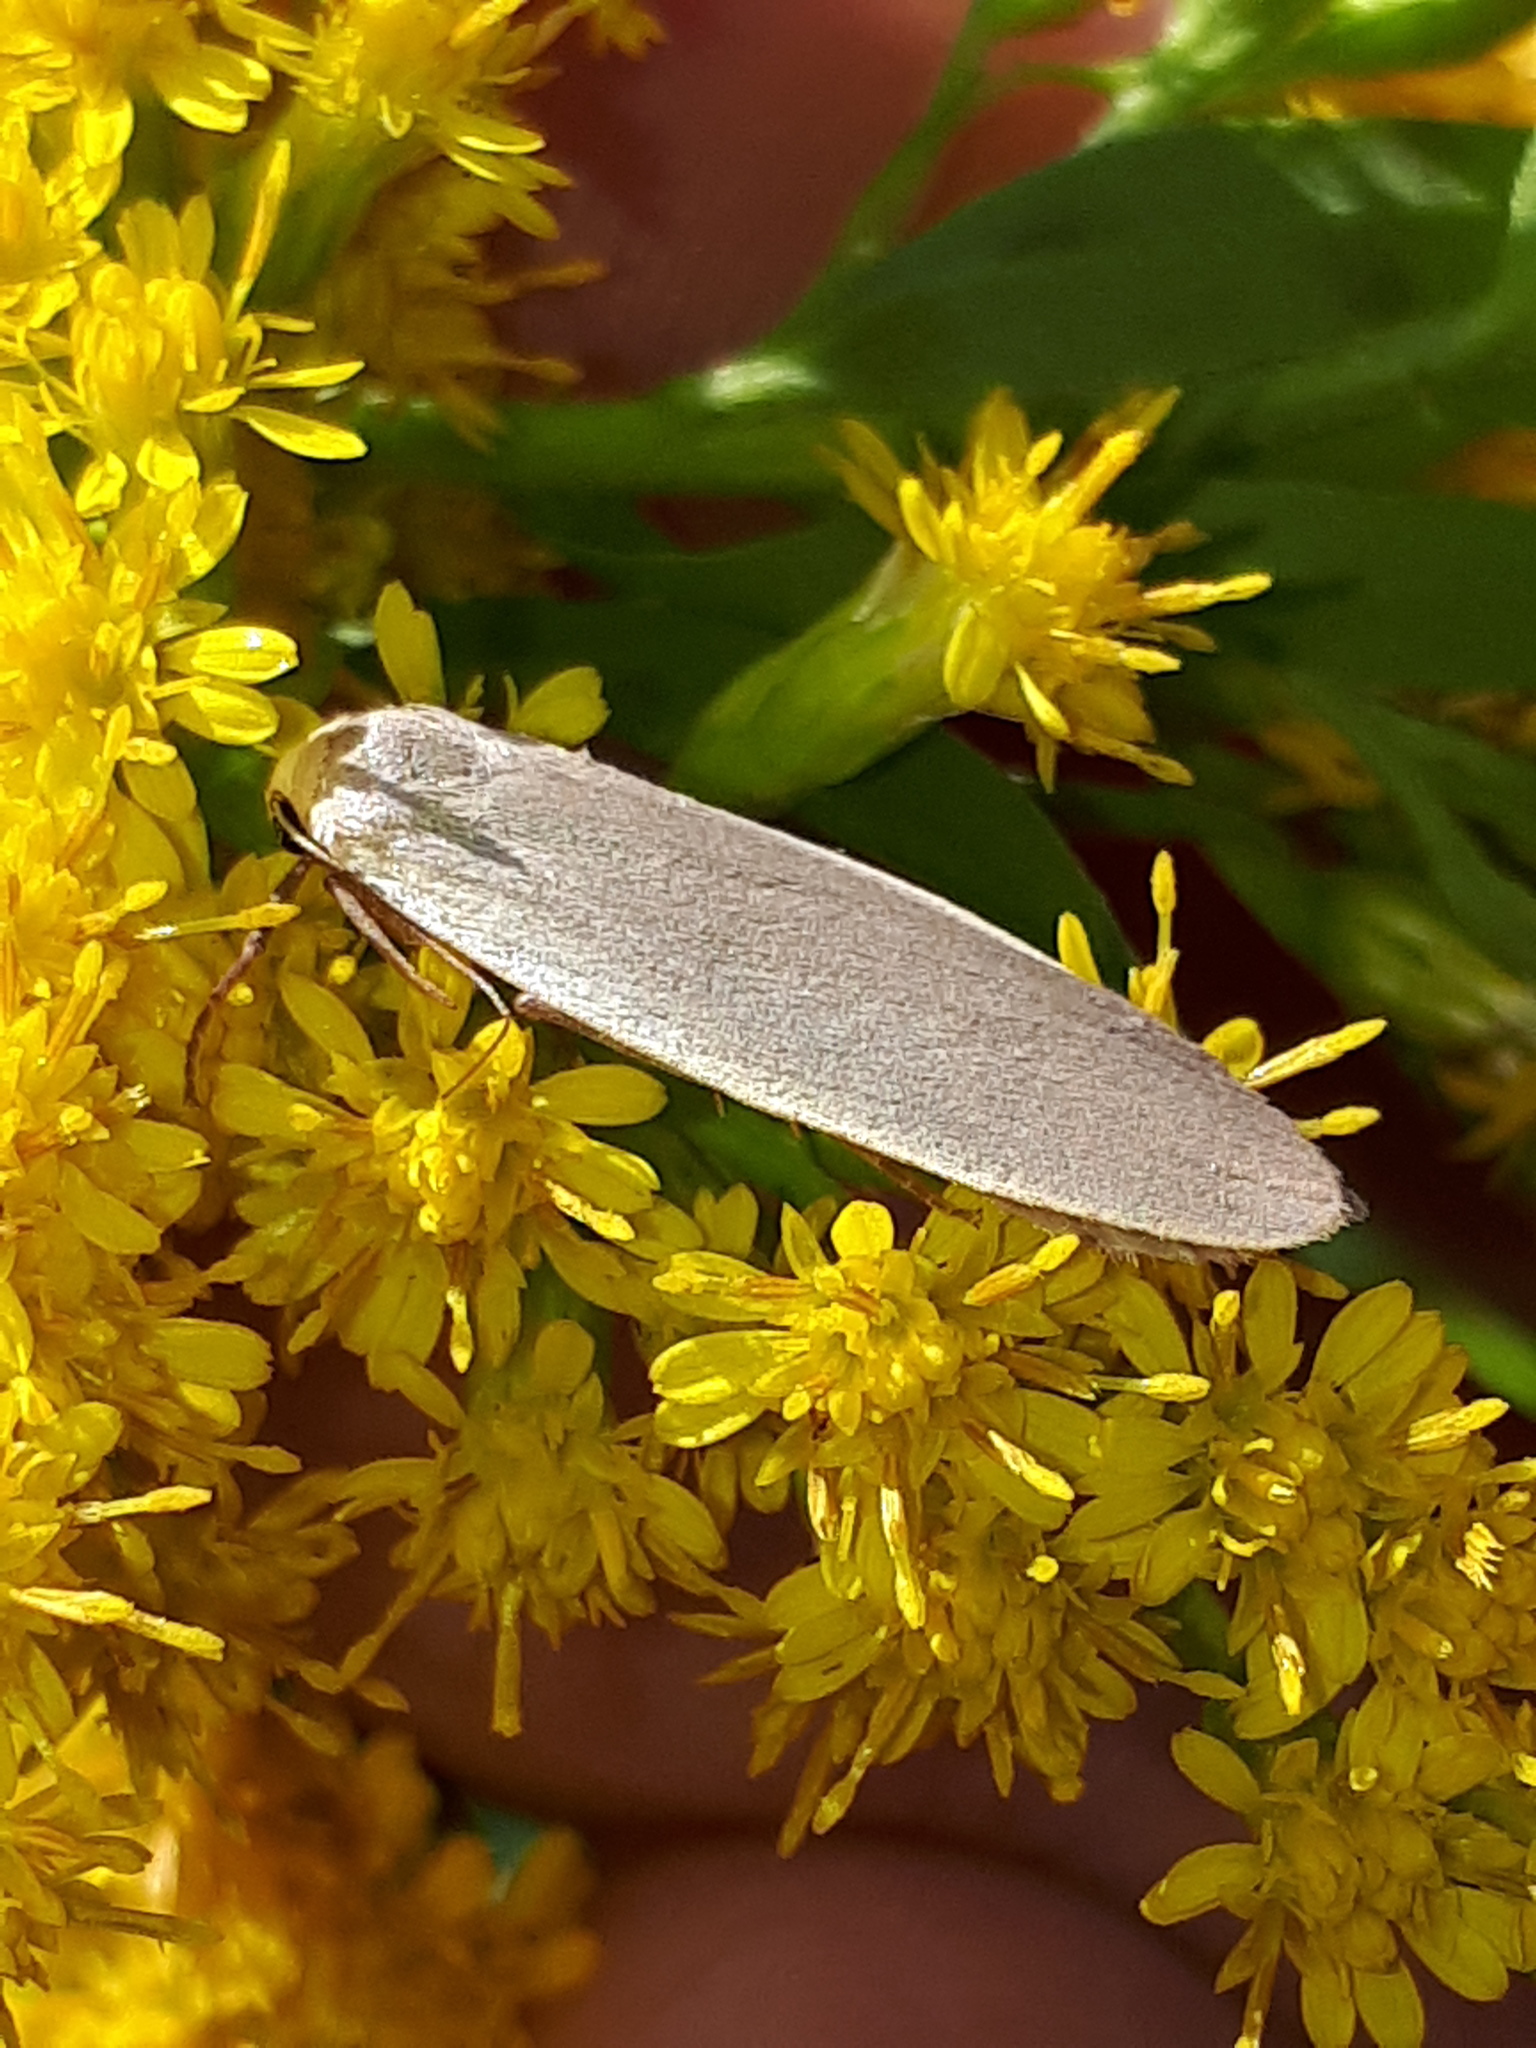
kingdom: Animalia
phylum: Arthropoda
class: Insecta
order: Lepidoptera
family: Erebidae
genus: Collita
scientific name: Collita griseola
